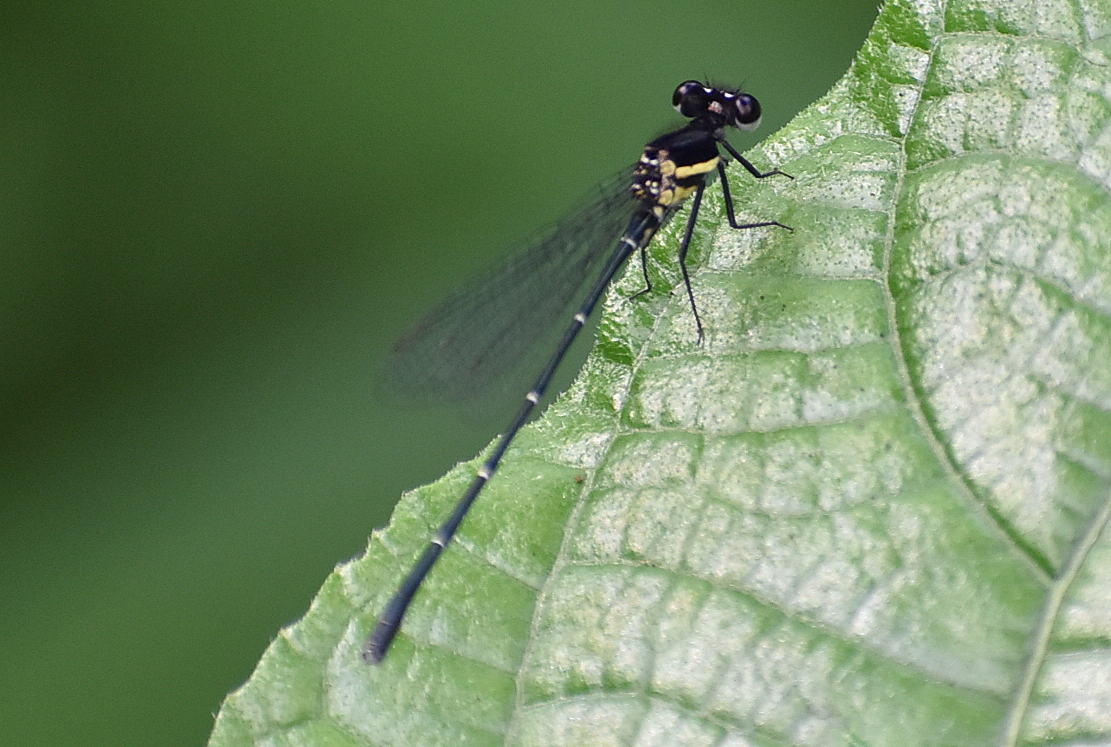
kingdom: Animalia
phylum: Arthropoda
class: Insecta
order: Odonata
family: Platycnemididae
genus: Onychargia
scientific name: Onychargia atrocyana
